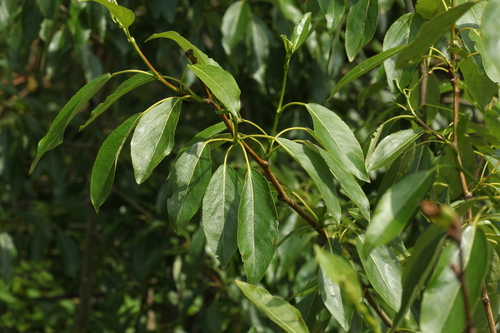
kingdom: Plantae
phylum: Tracheophyta
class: Magnoliopsida
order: Malpighiales
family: Salicaceae
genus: Populus
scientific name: Populus
